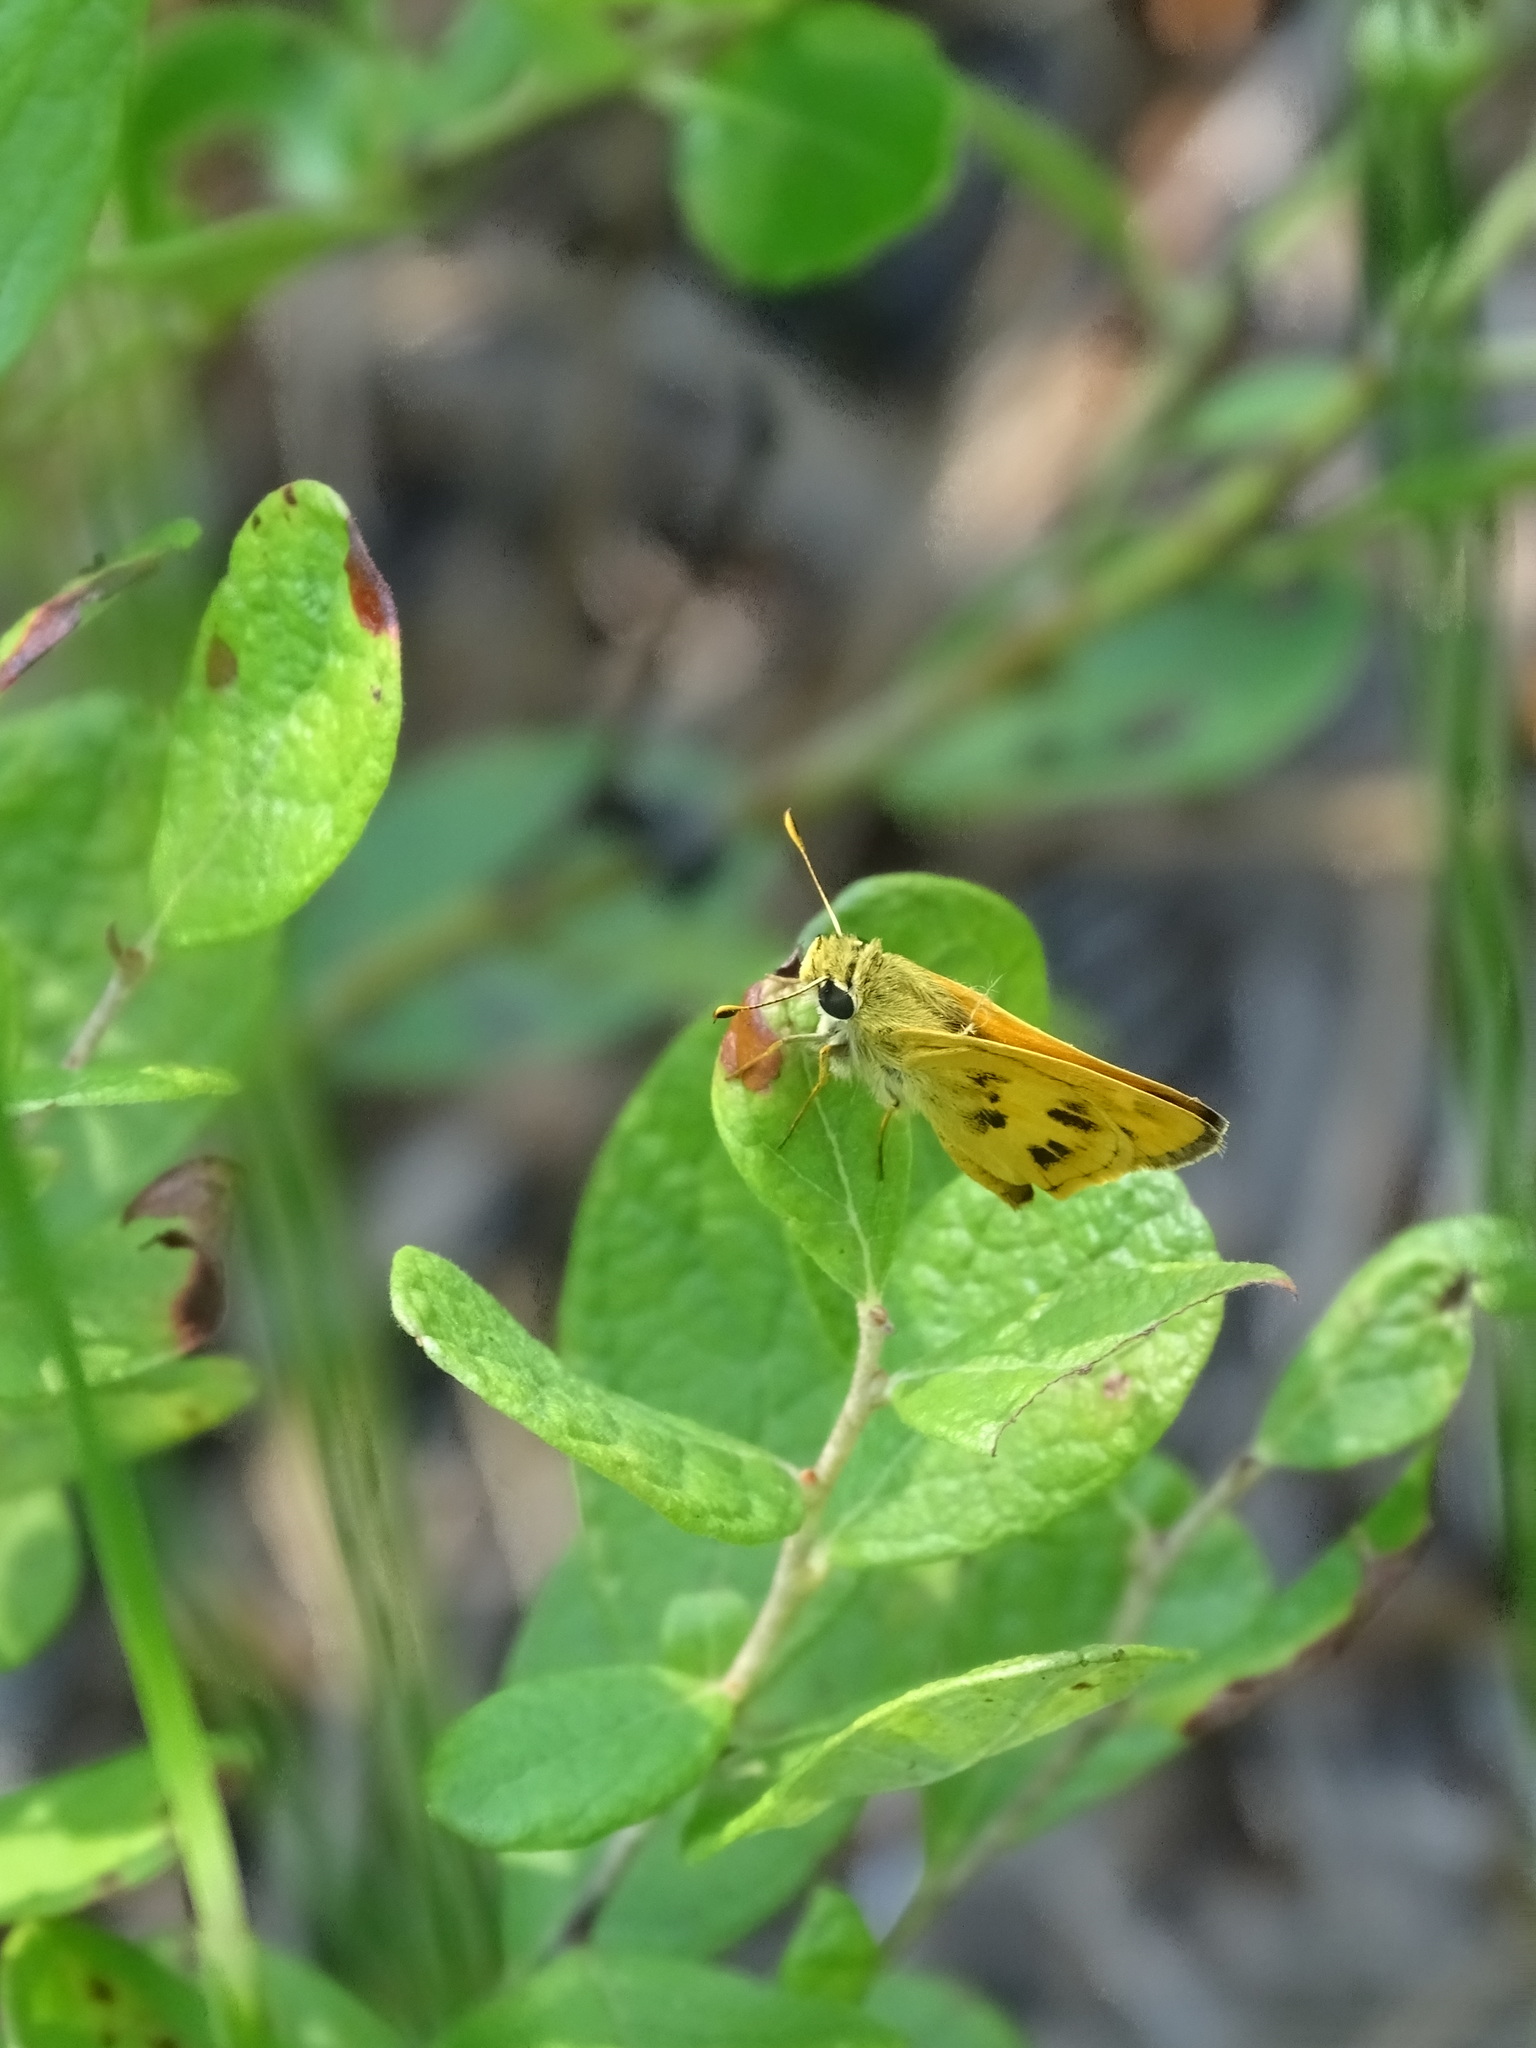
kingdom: Animalia
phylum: Arthropoda
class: Insecta
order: Lepidoptera
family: Hesperiidae
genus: Polites
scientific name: Polites vibex
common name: Whirlabout
